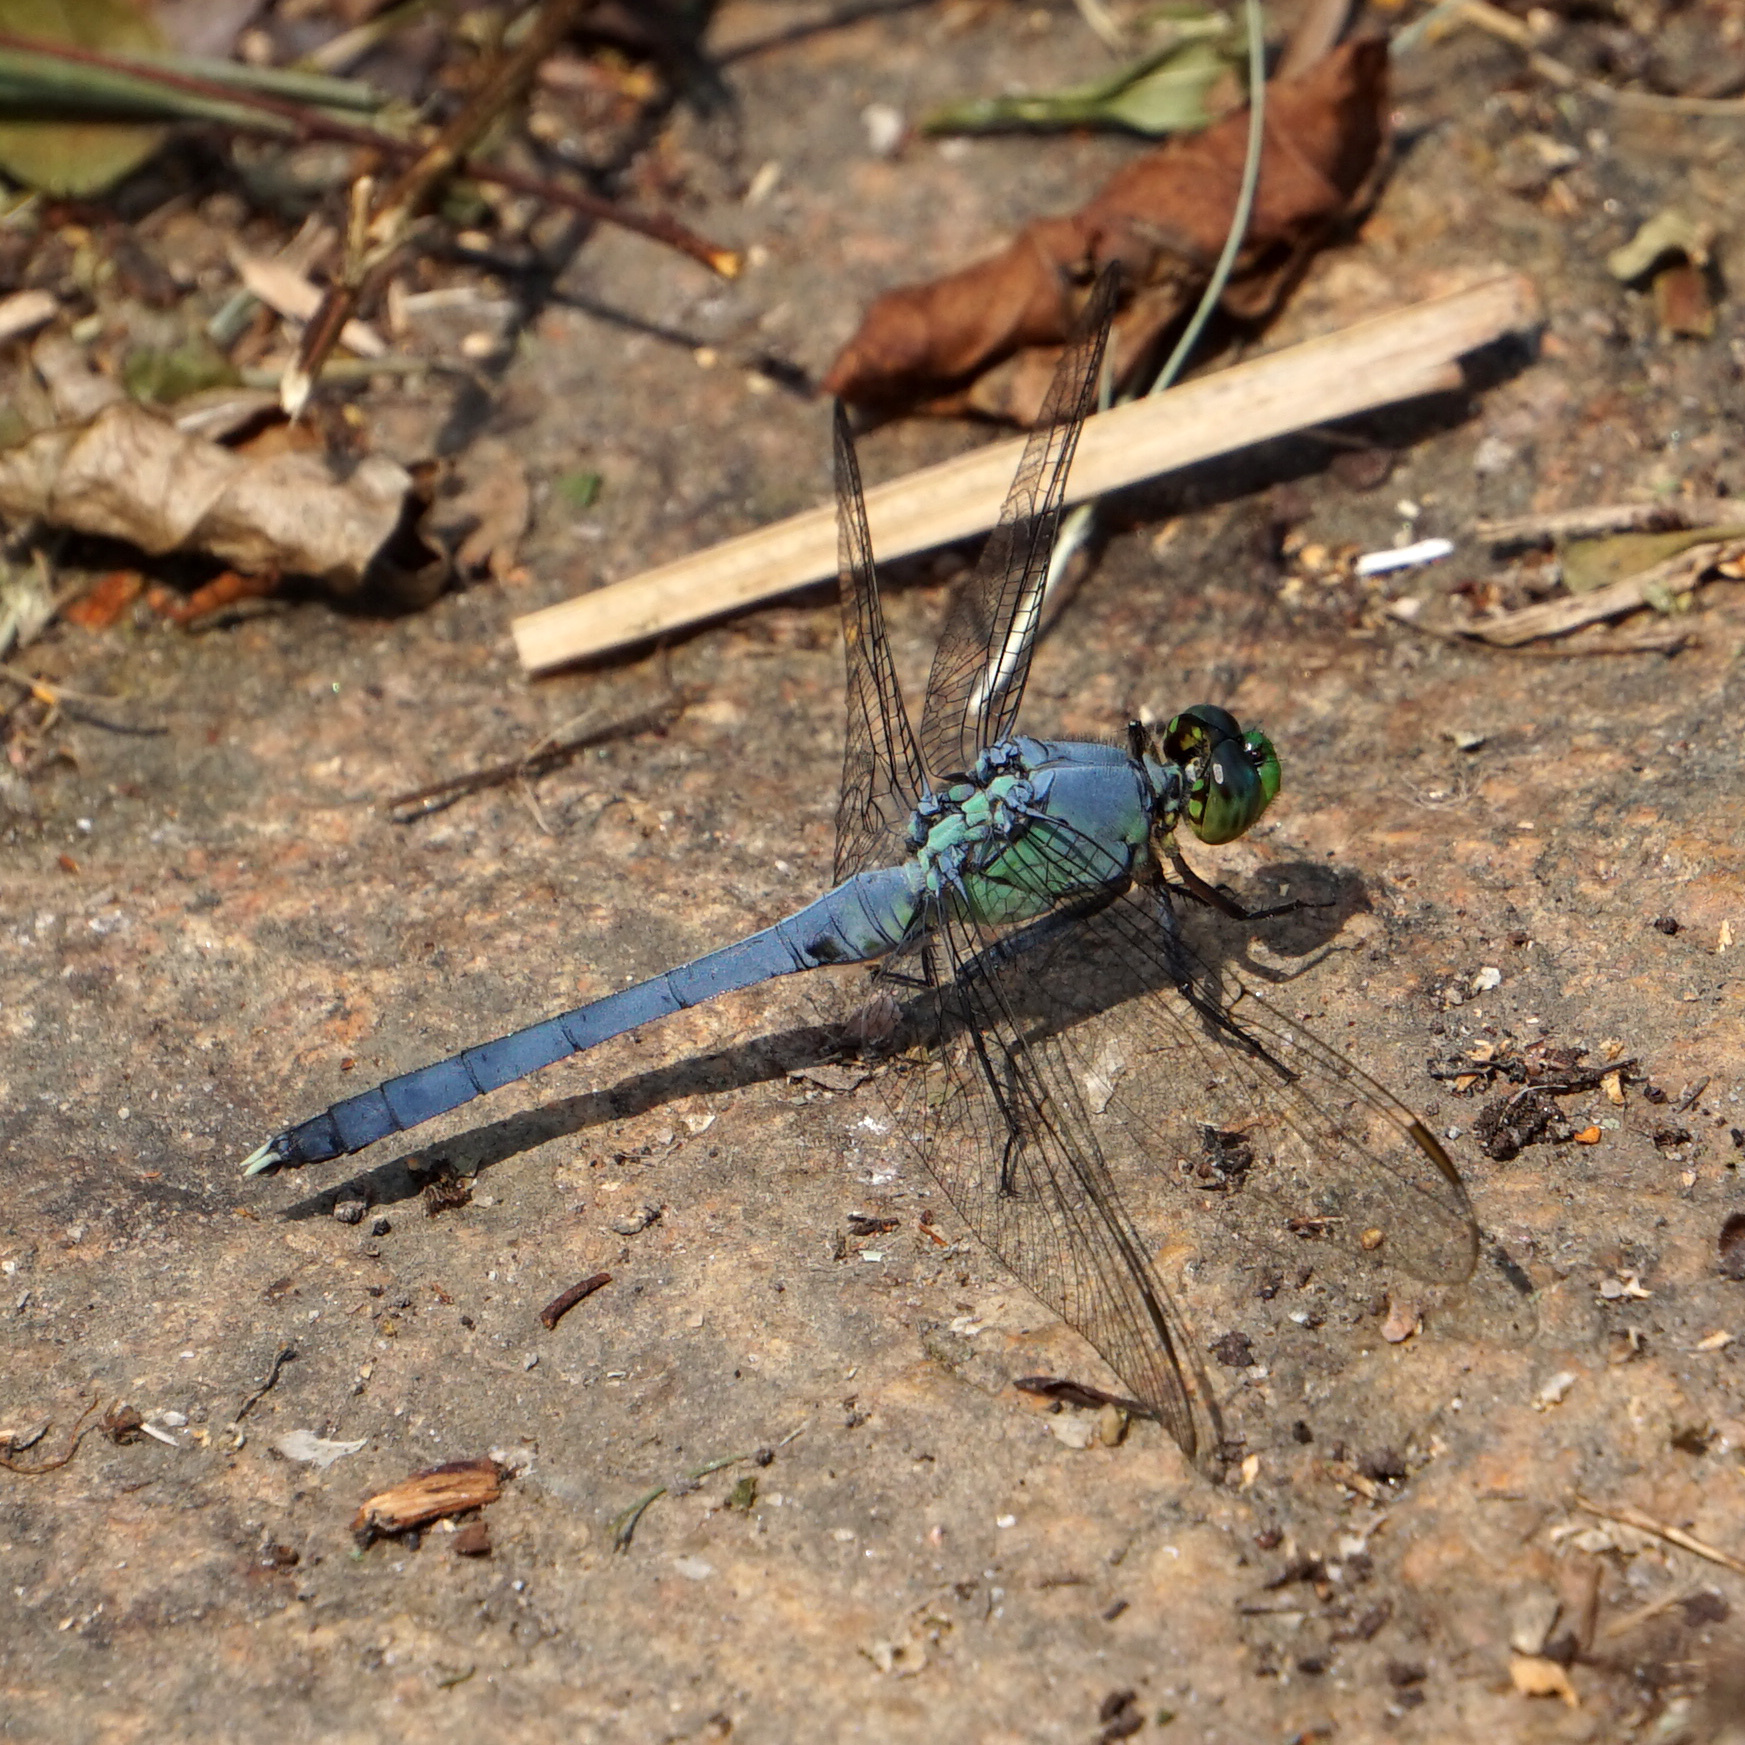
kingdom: Animalia
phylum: Arthropoda
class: Insecta
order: Odonata
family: Libellulidae
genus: Erythemis
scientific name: Erythemis simplicicollis
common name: Eastern pondhawk
